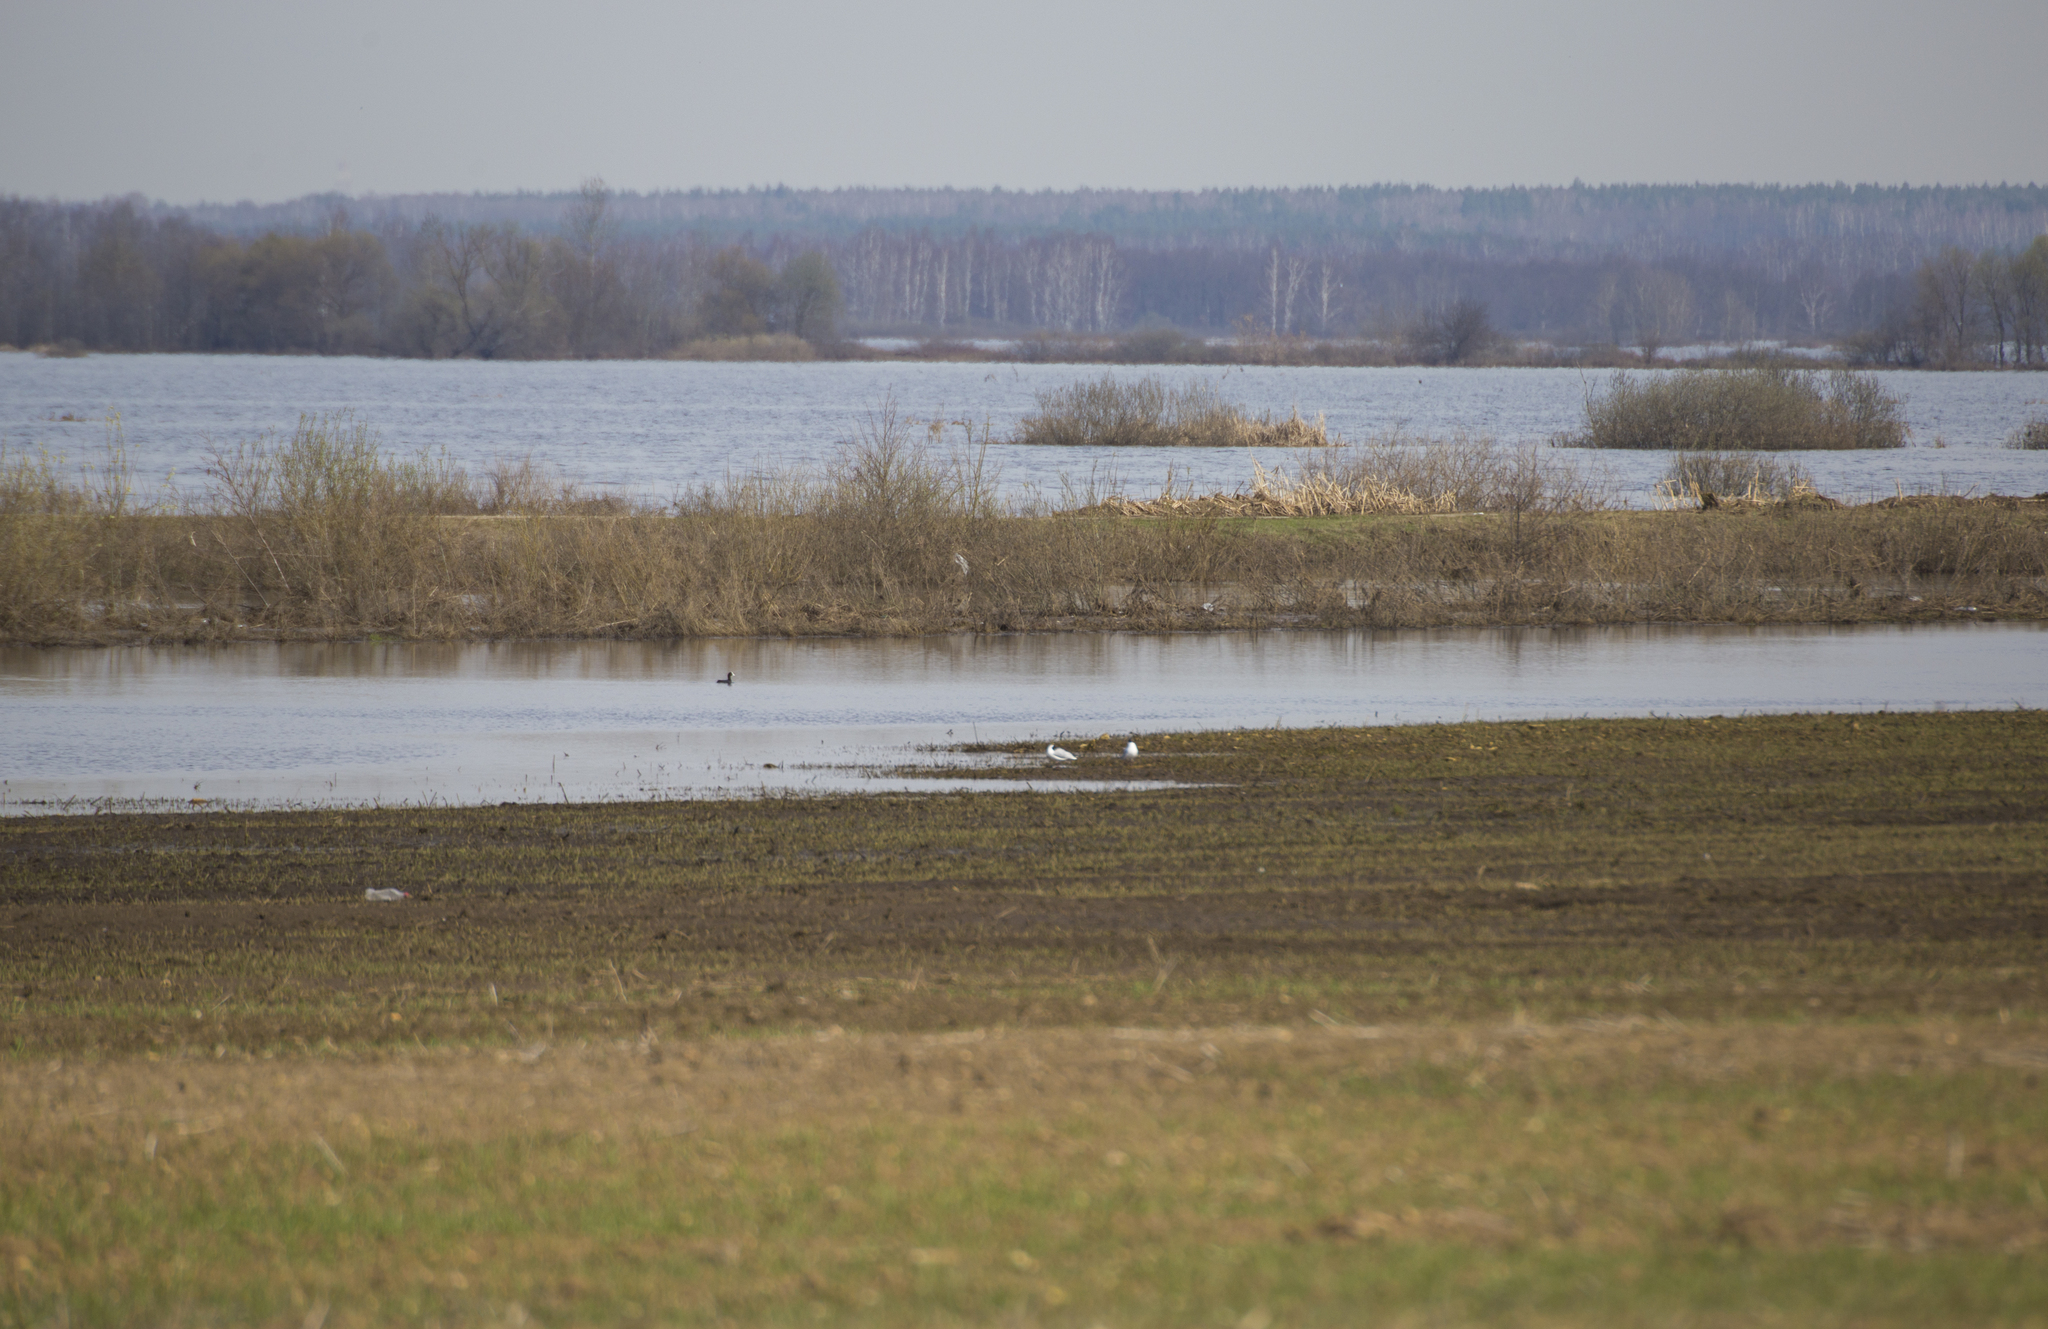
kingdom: Animalia
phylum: Chordata
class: Aves
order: Charadriiformes
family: Laridae
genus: Chroicocephalus
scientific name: Chroicocephalus ridibundus
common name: Black-headed gull
